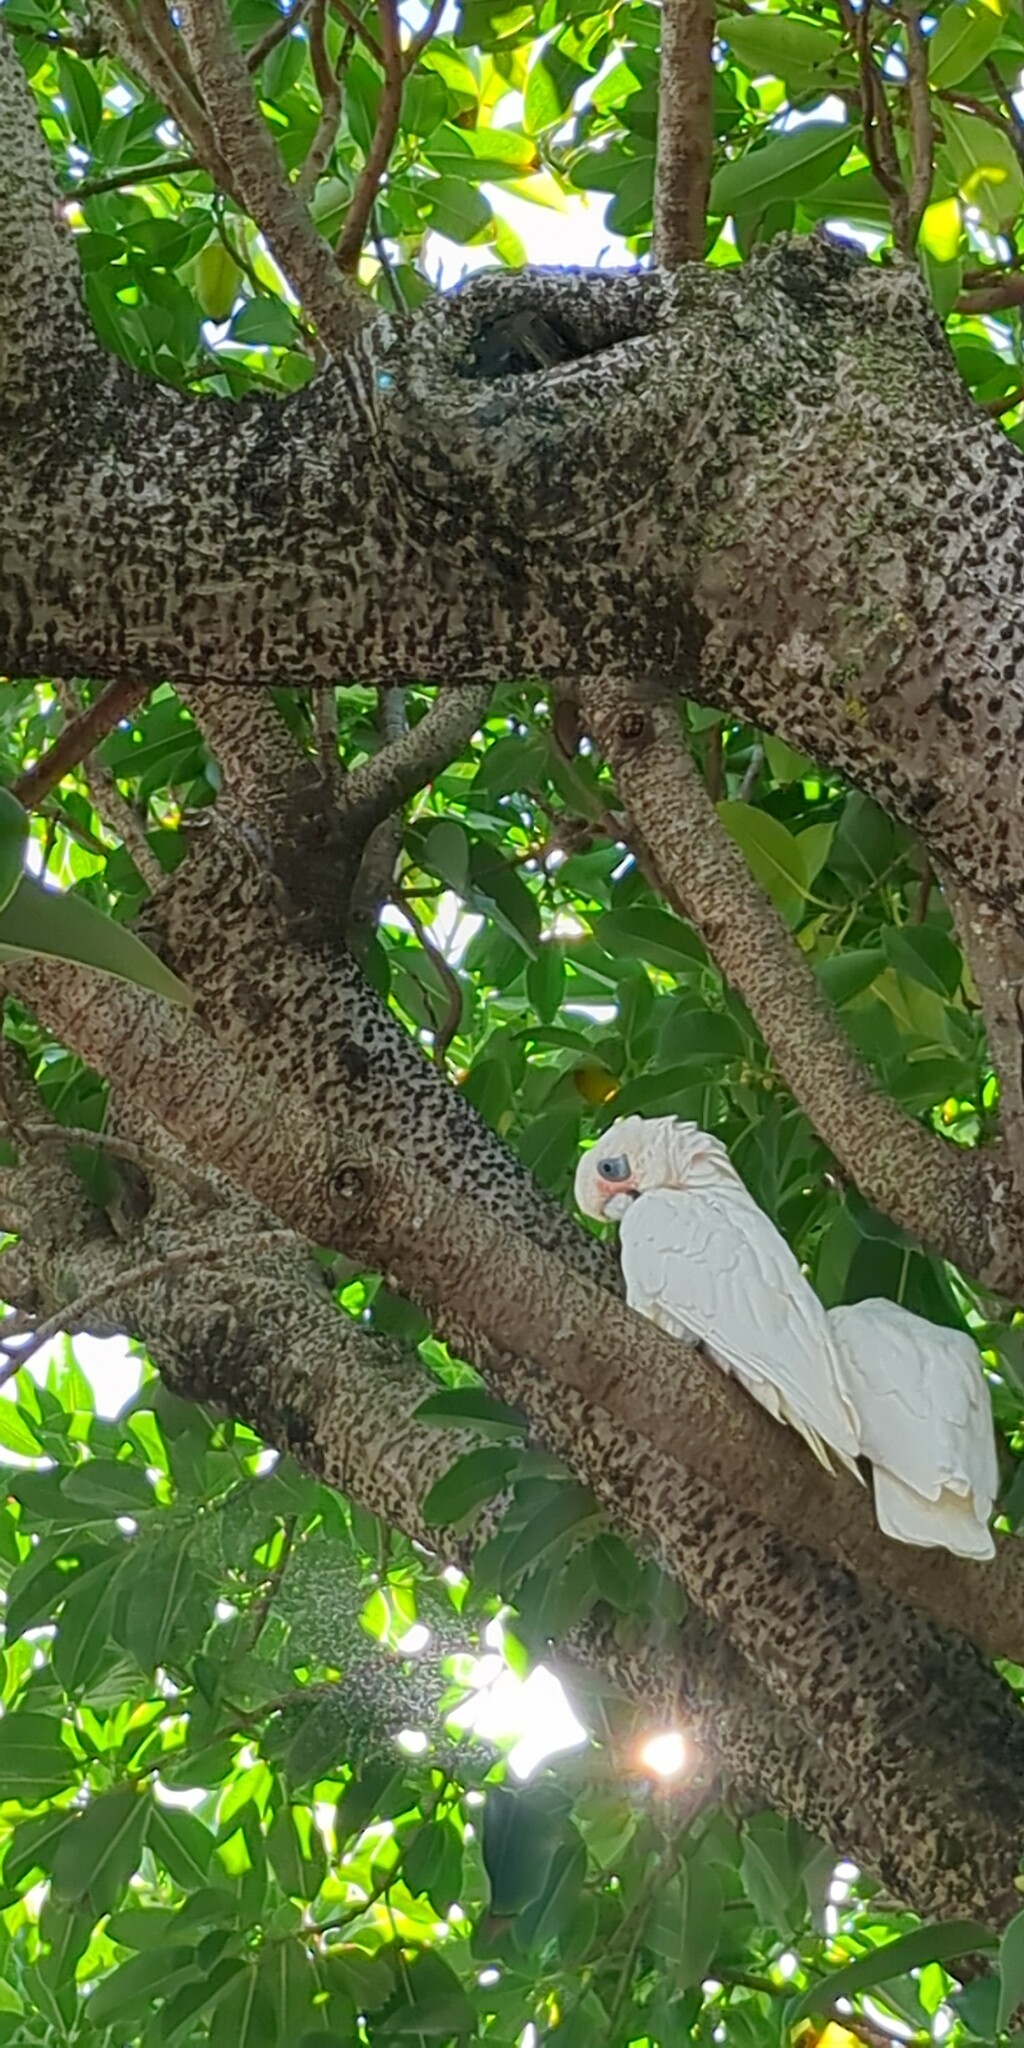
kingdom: Animalia
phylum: Chordata
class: Aves
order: Psittaciformes
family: Psittacidae
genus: Cacatua
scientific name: Cacatua sanguinea
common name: Little corella
